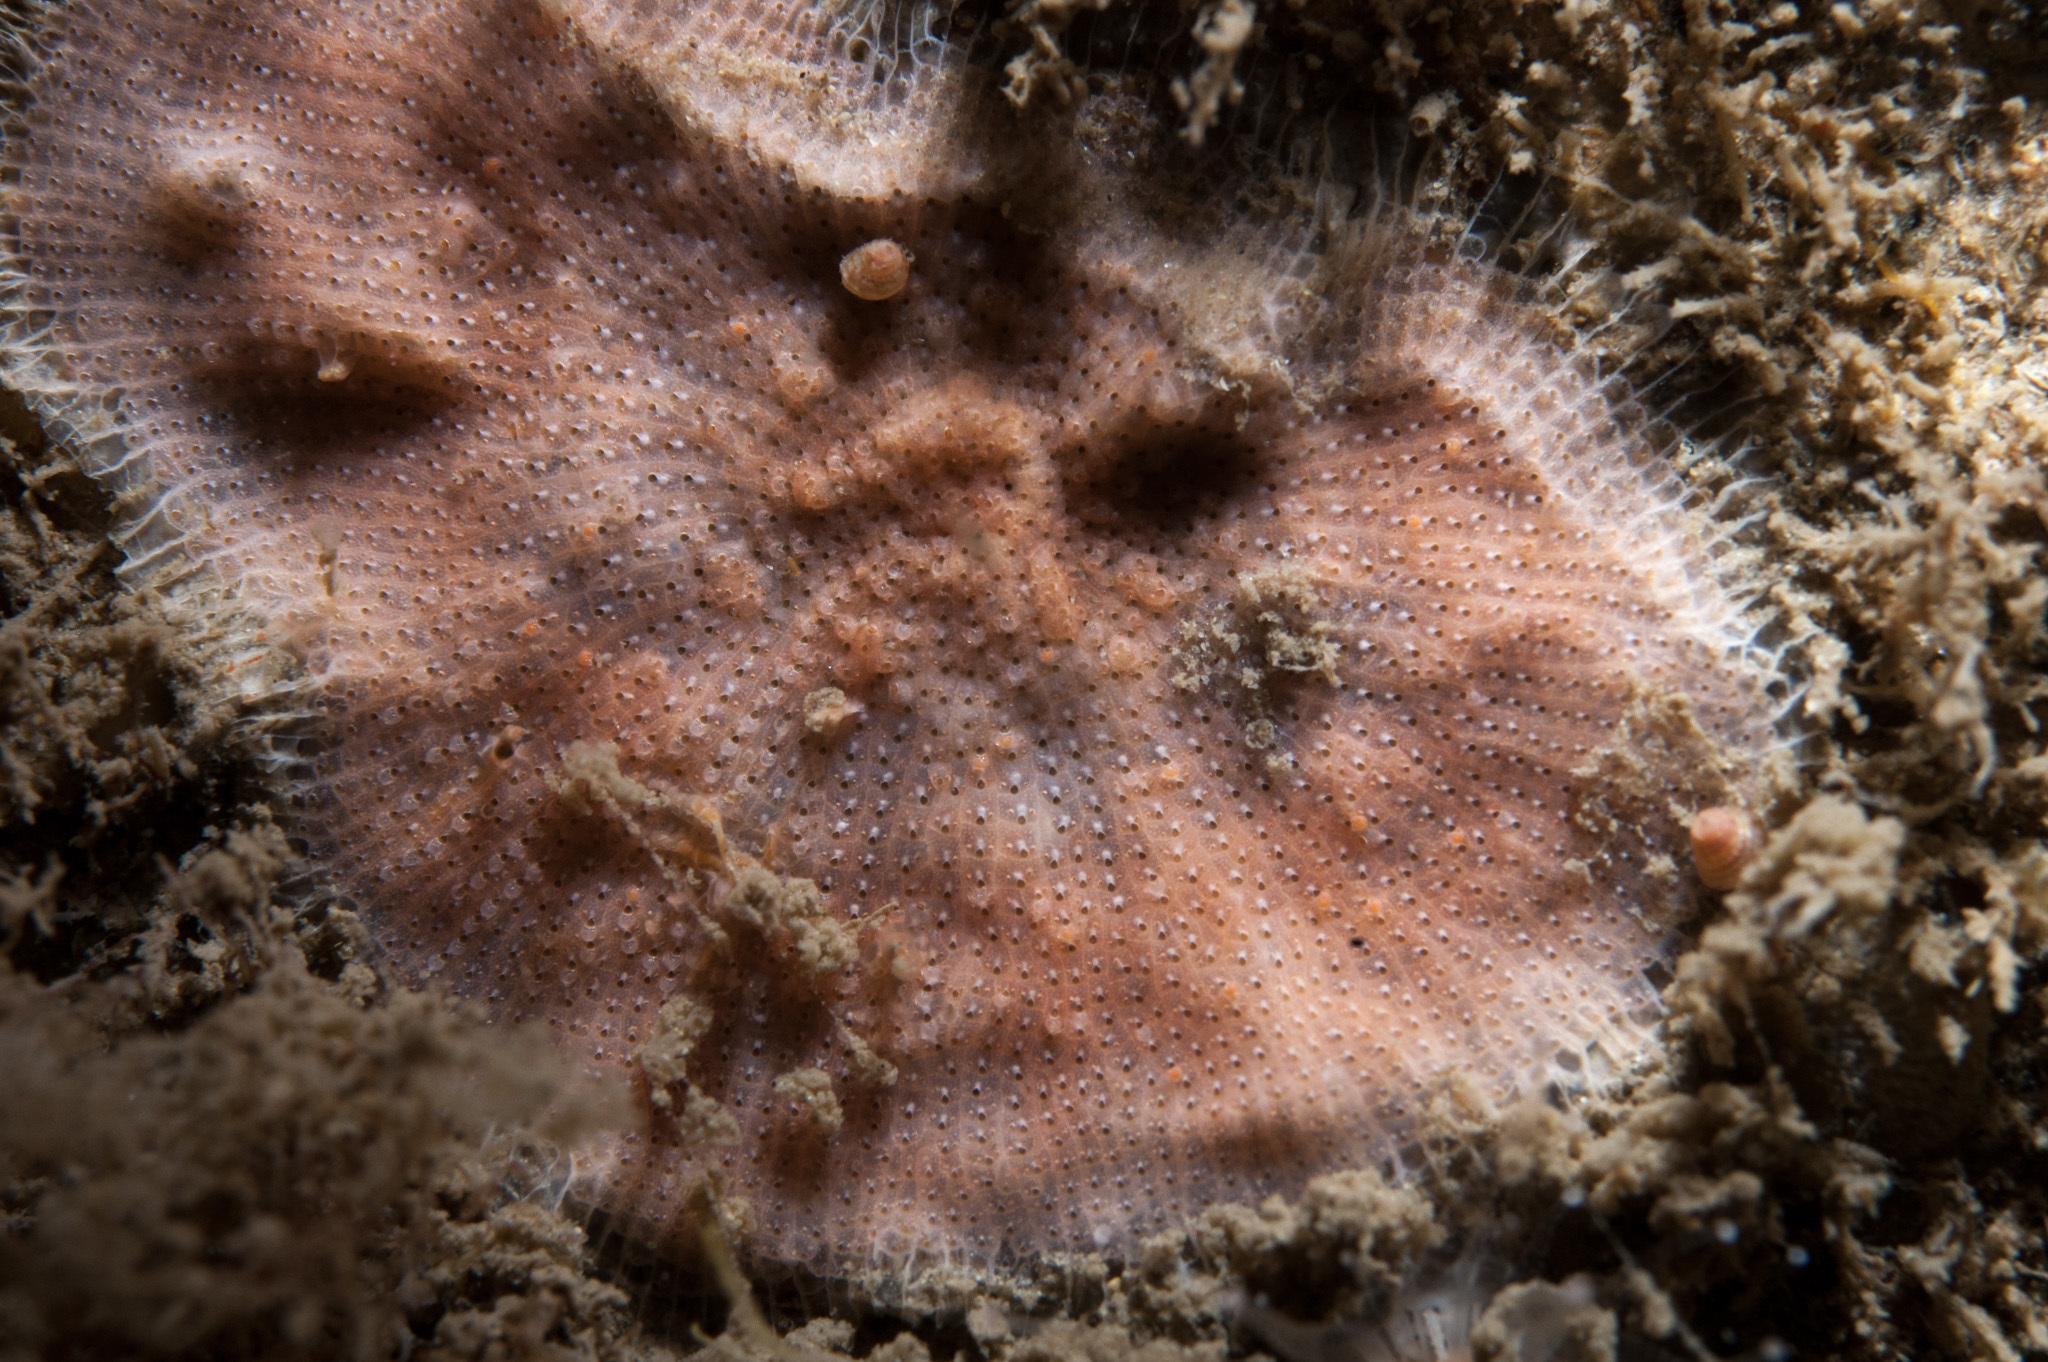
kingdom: Animalia
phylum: Bryozoa
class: Gymnolaemata
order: Cheilostomatida
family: Bitectiporidae
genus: Schizomavella
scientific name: Schizomavella linearis
